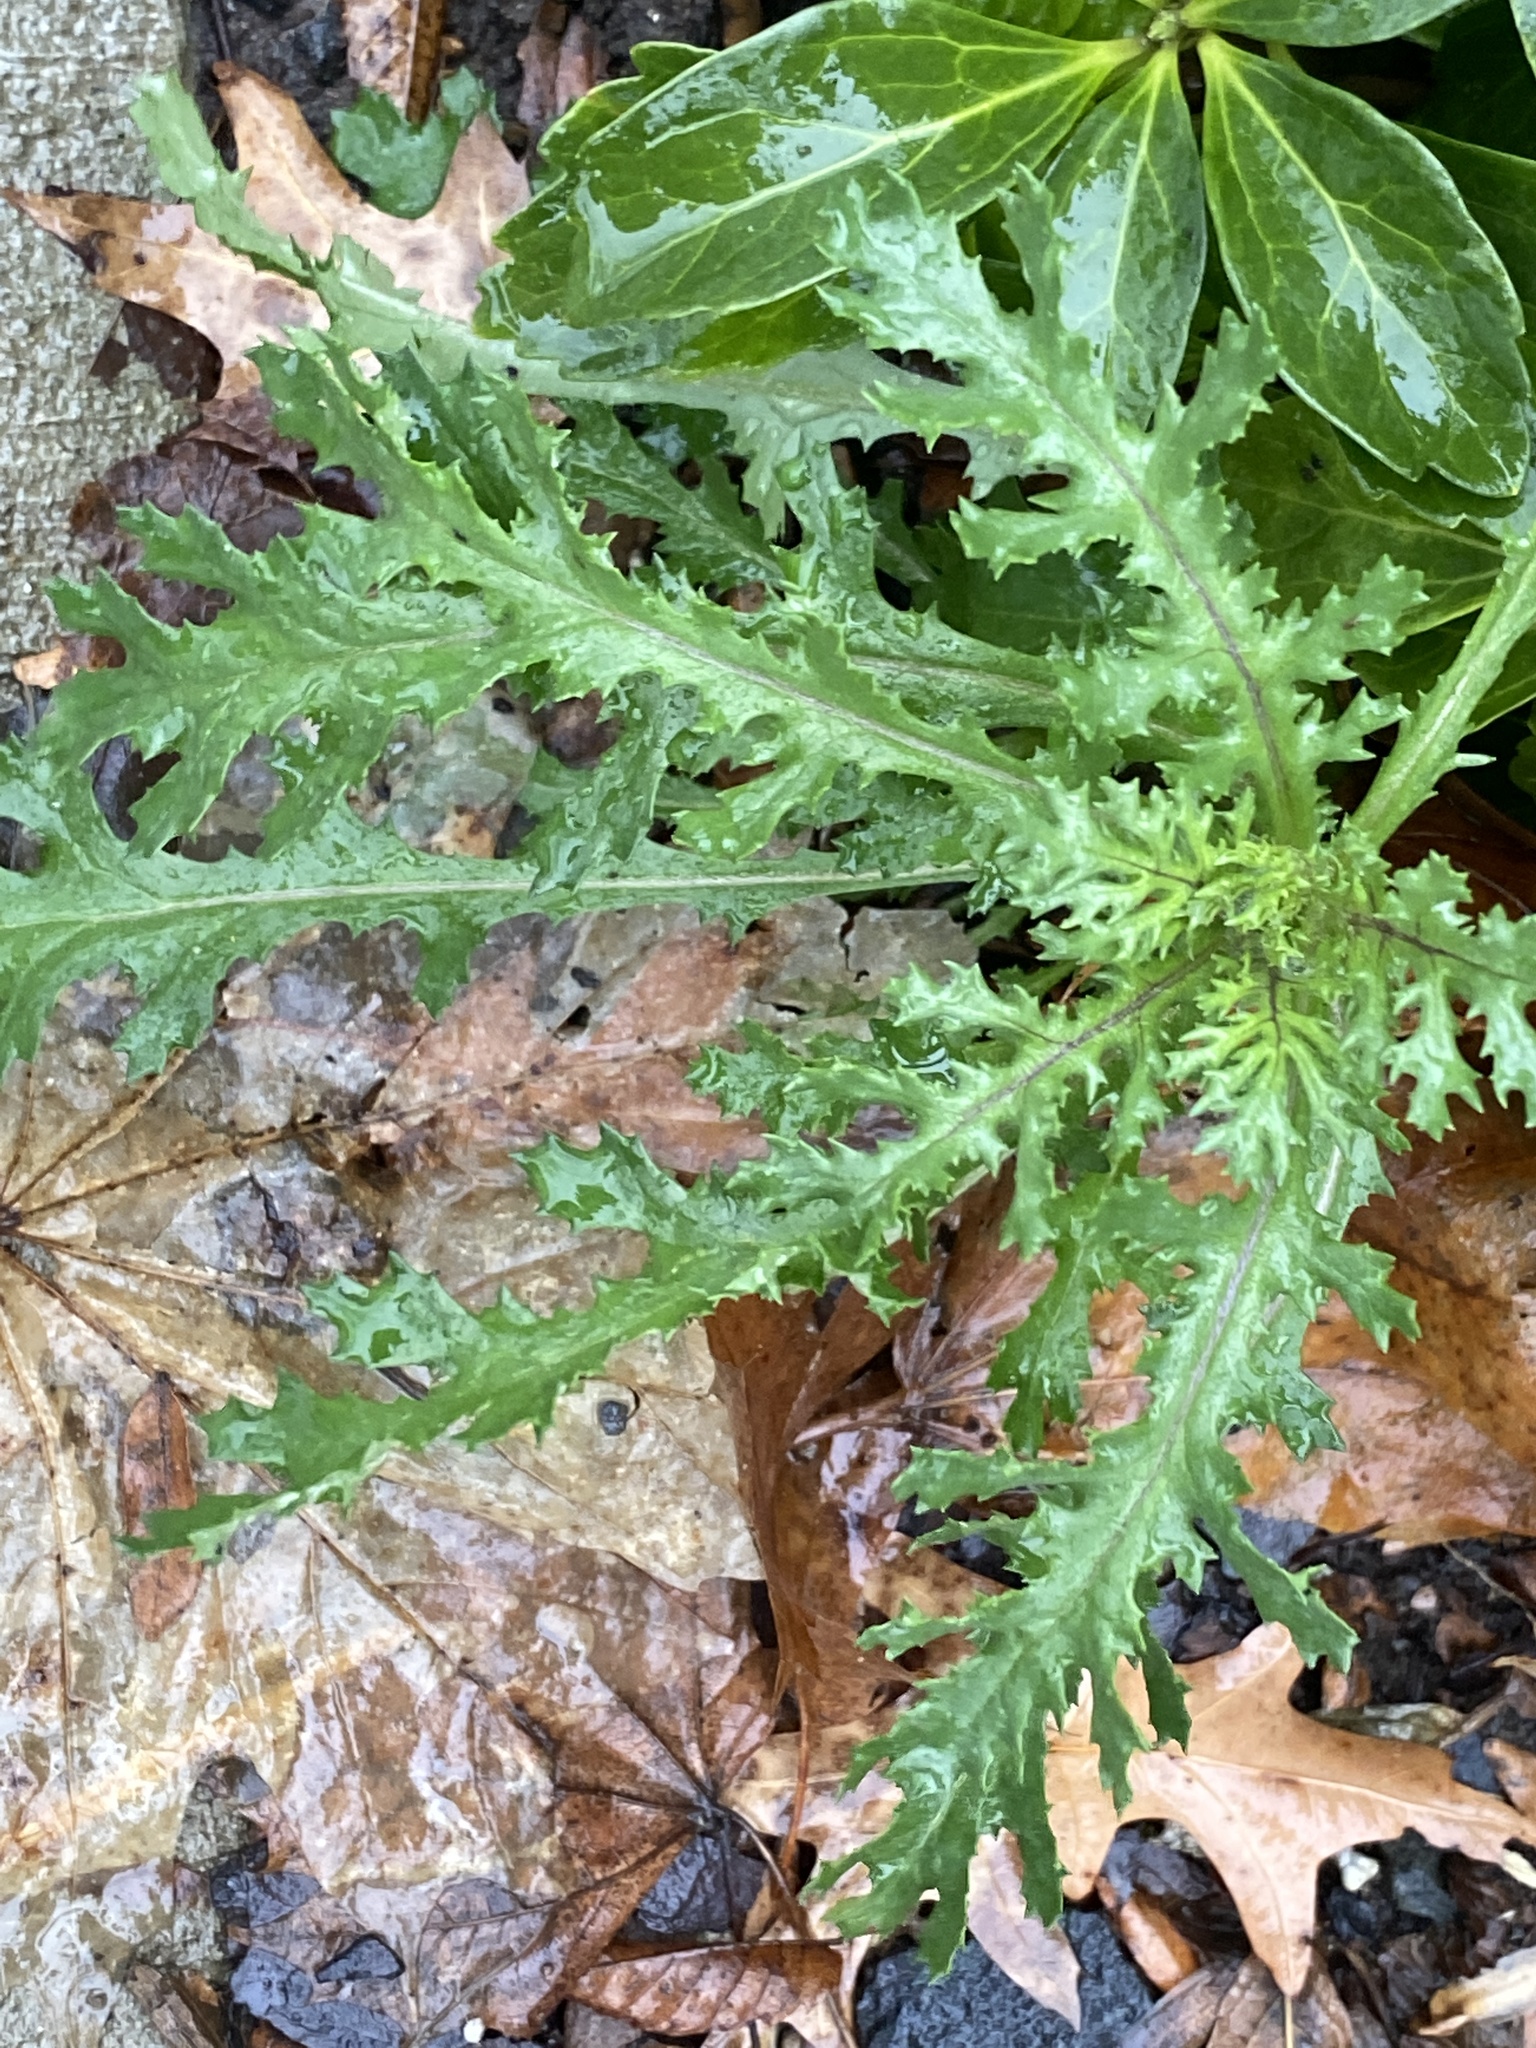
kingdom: Plantae
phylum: Tracheophyta
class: Magnoliopsida
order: Asterales
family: Asteraceae
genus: Senecio
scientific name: Senecio vulgaris
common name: Old-man-in-the-spring
